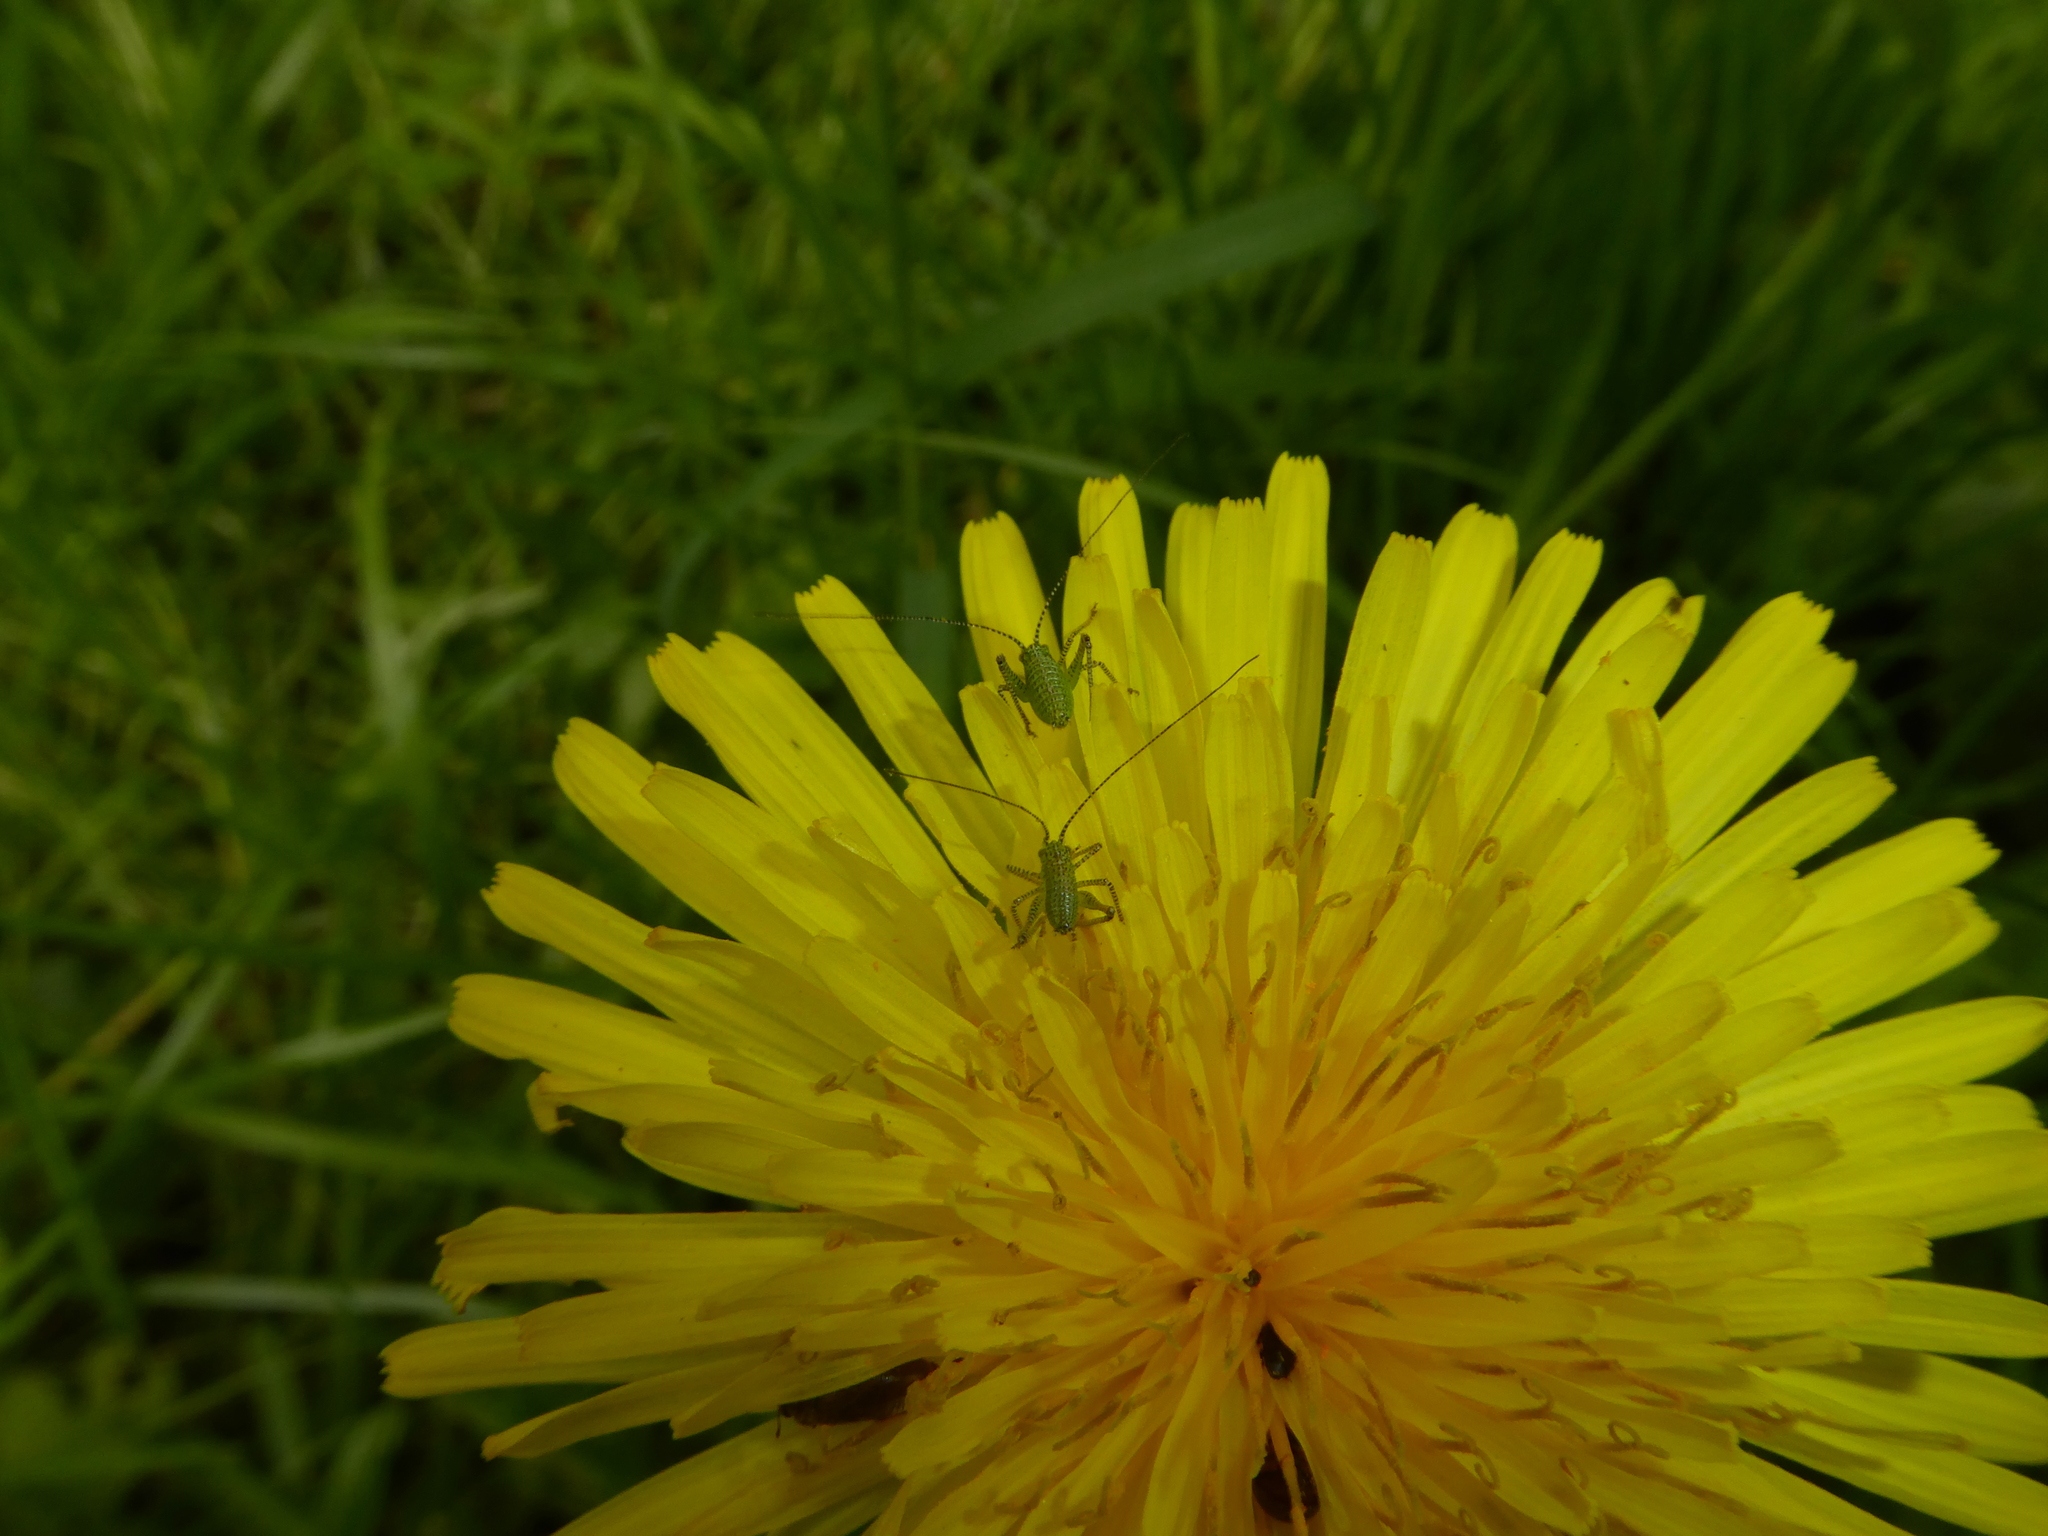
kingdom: Animalia
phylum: Arthropoda
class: Insecta
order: Orthoptera
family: Tettigoniidae
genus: Leptophyes
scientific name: Leptophyes punctatissima
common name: Speckled bush-cricket
